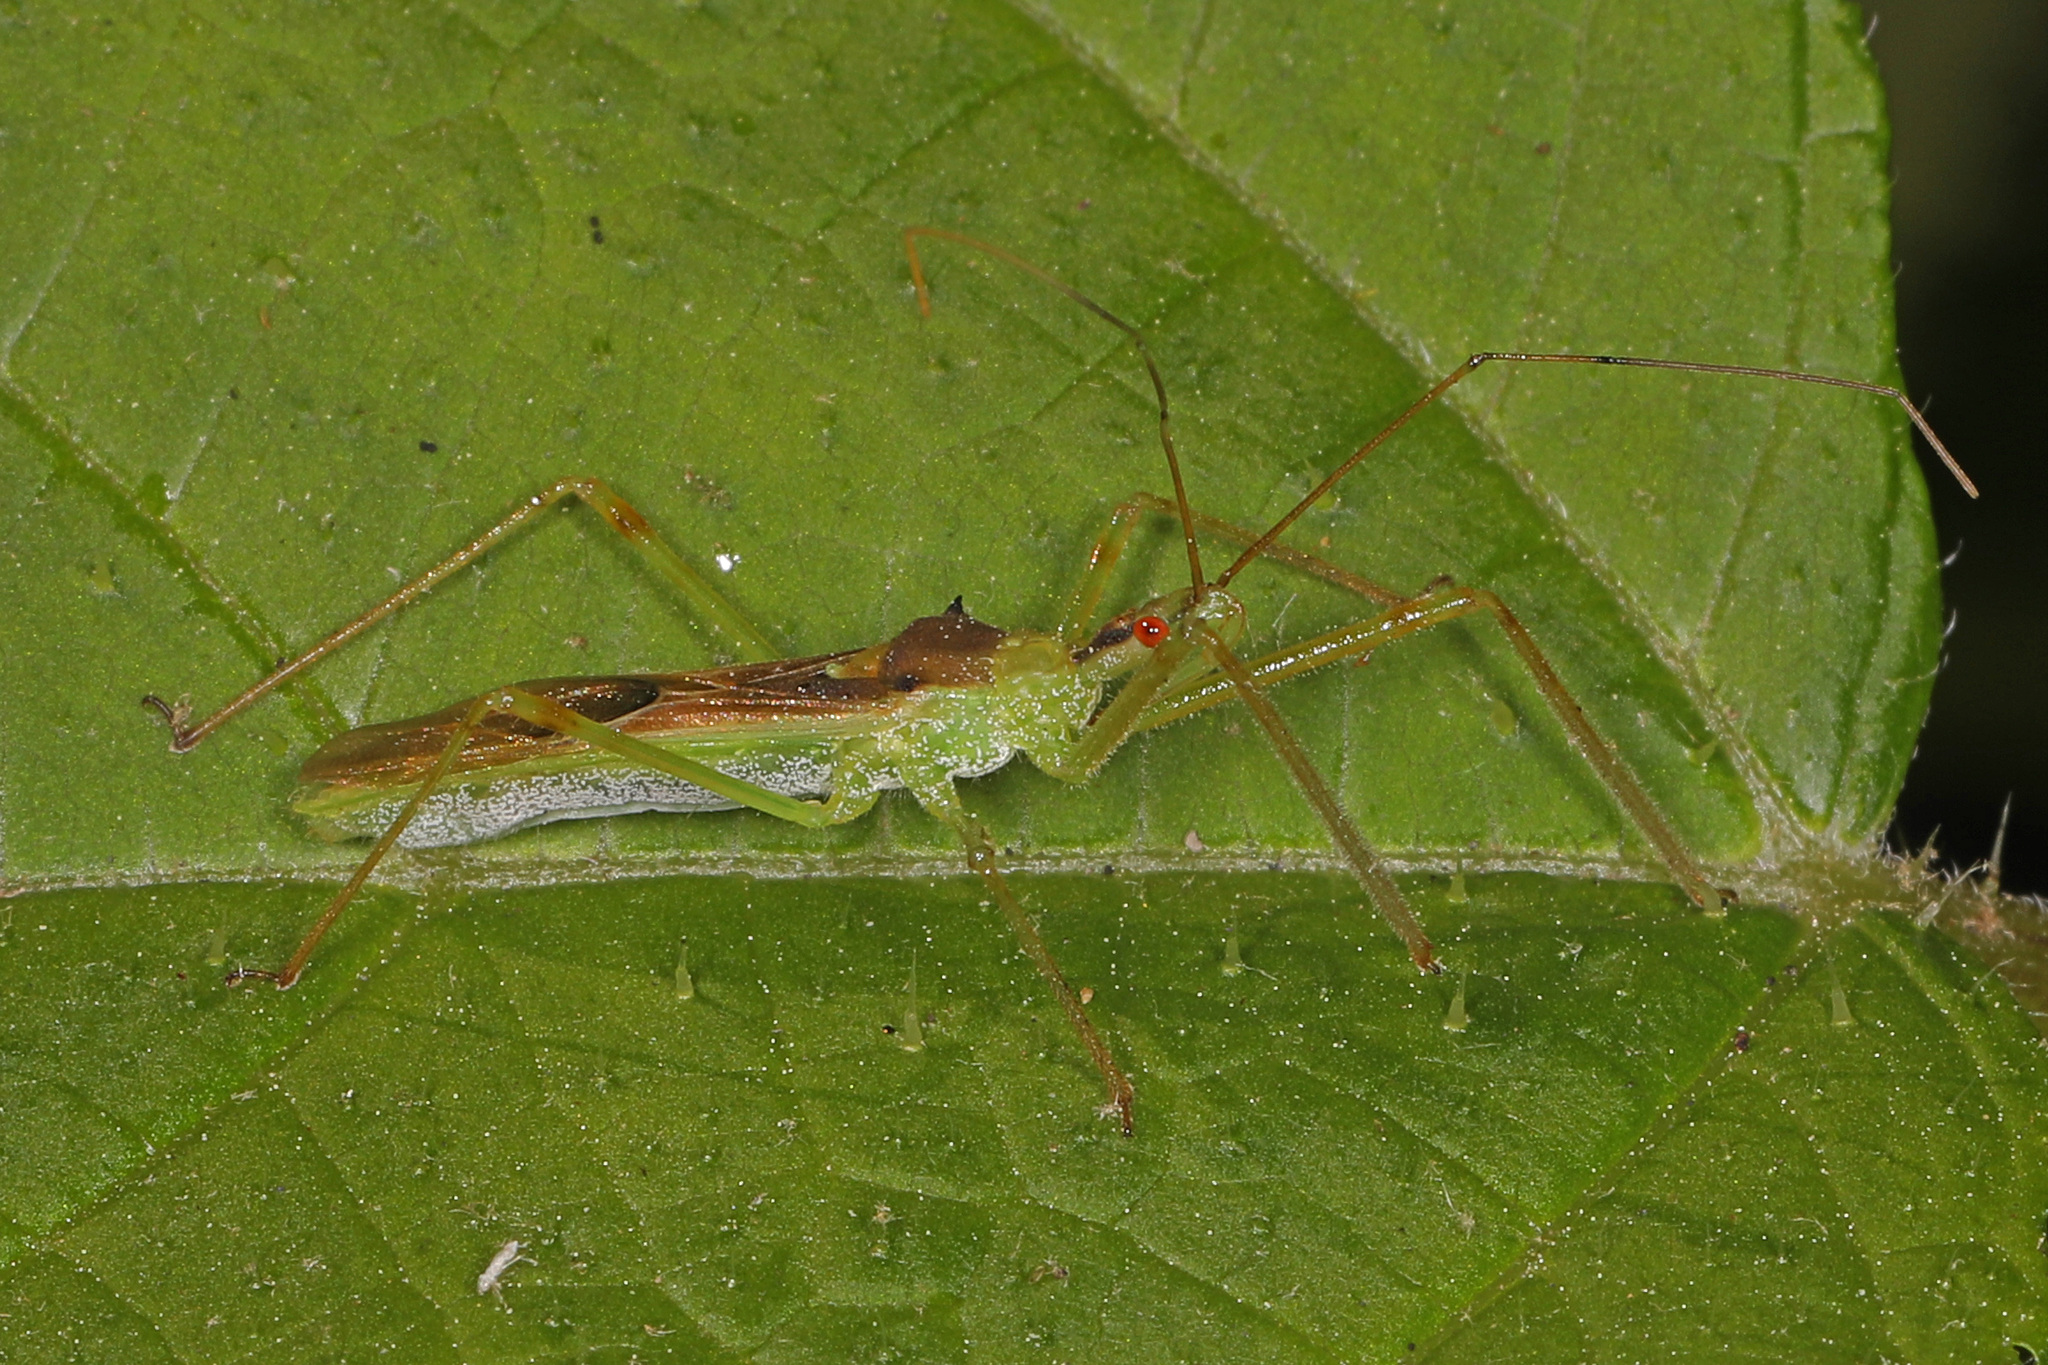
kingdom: Animalia
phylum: Arthropoda
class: Insecta
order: Hemiptera
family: Reduviidae
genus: Zelus
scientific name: Zelus luridus
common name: Pale green assassin bug
